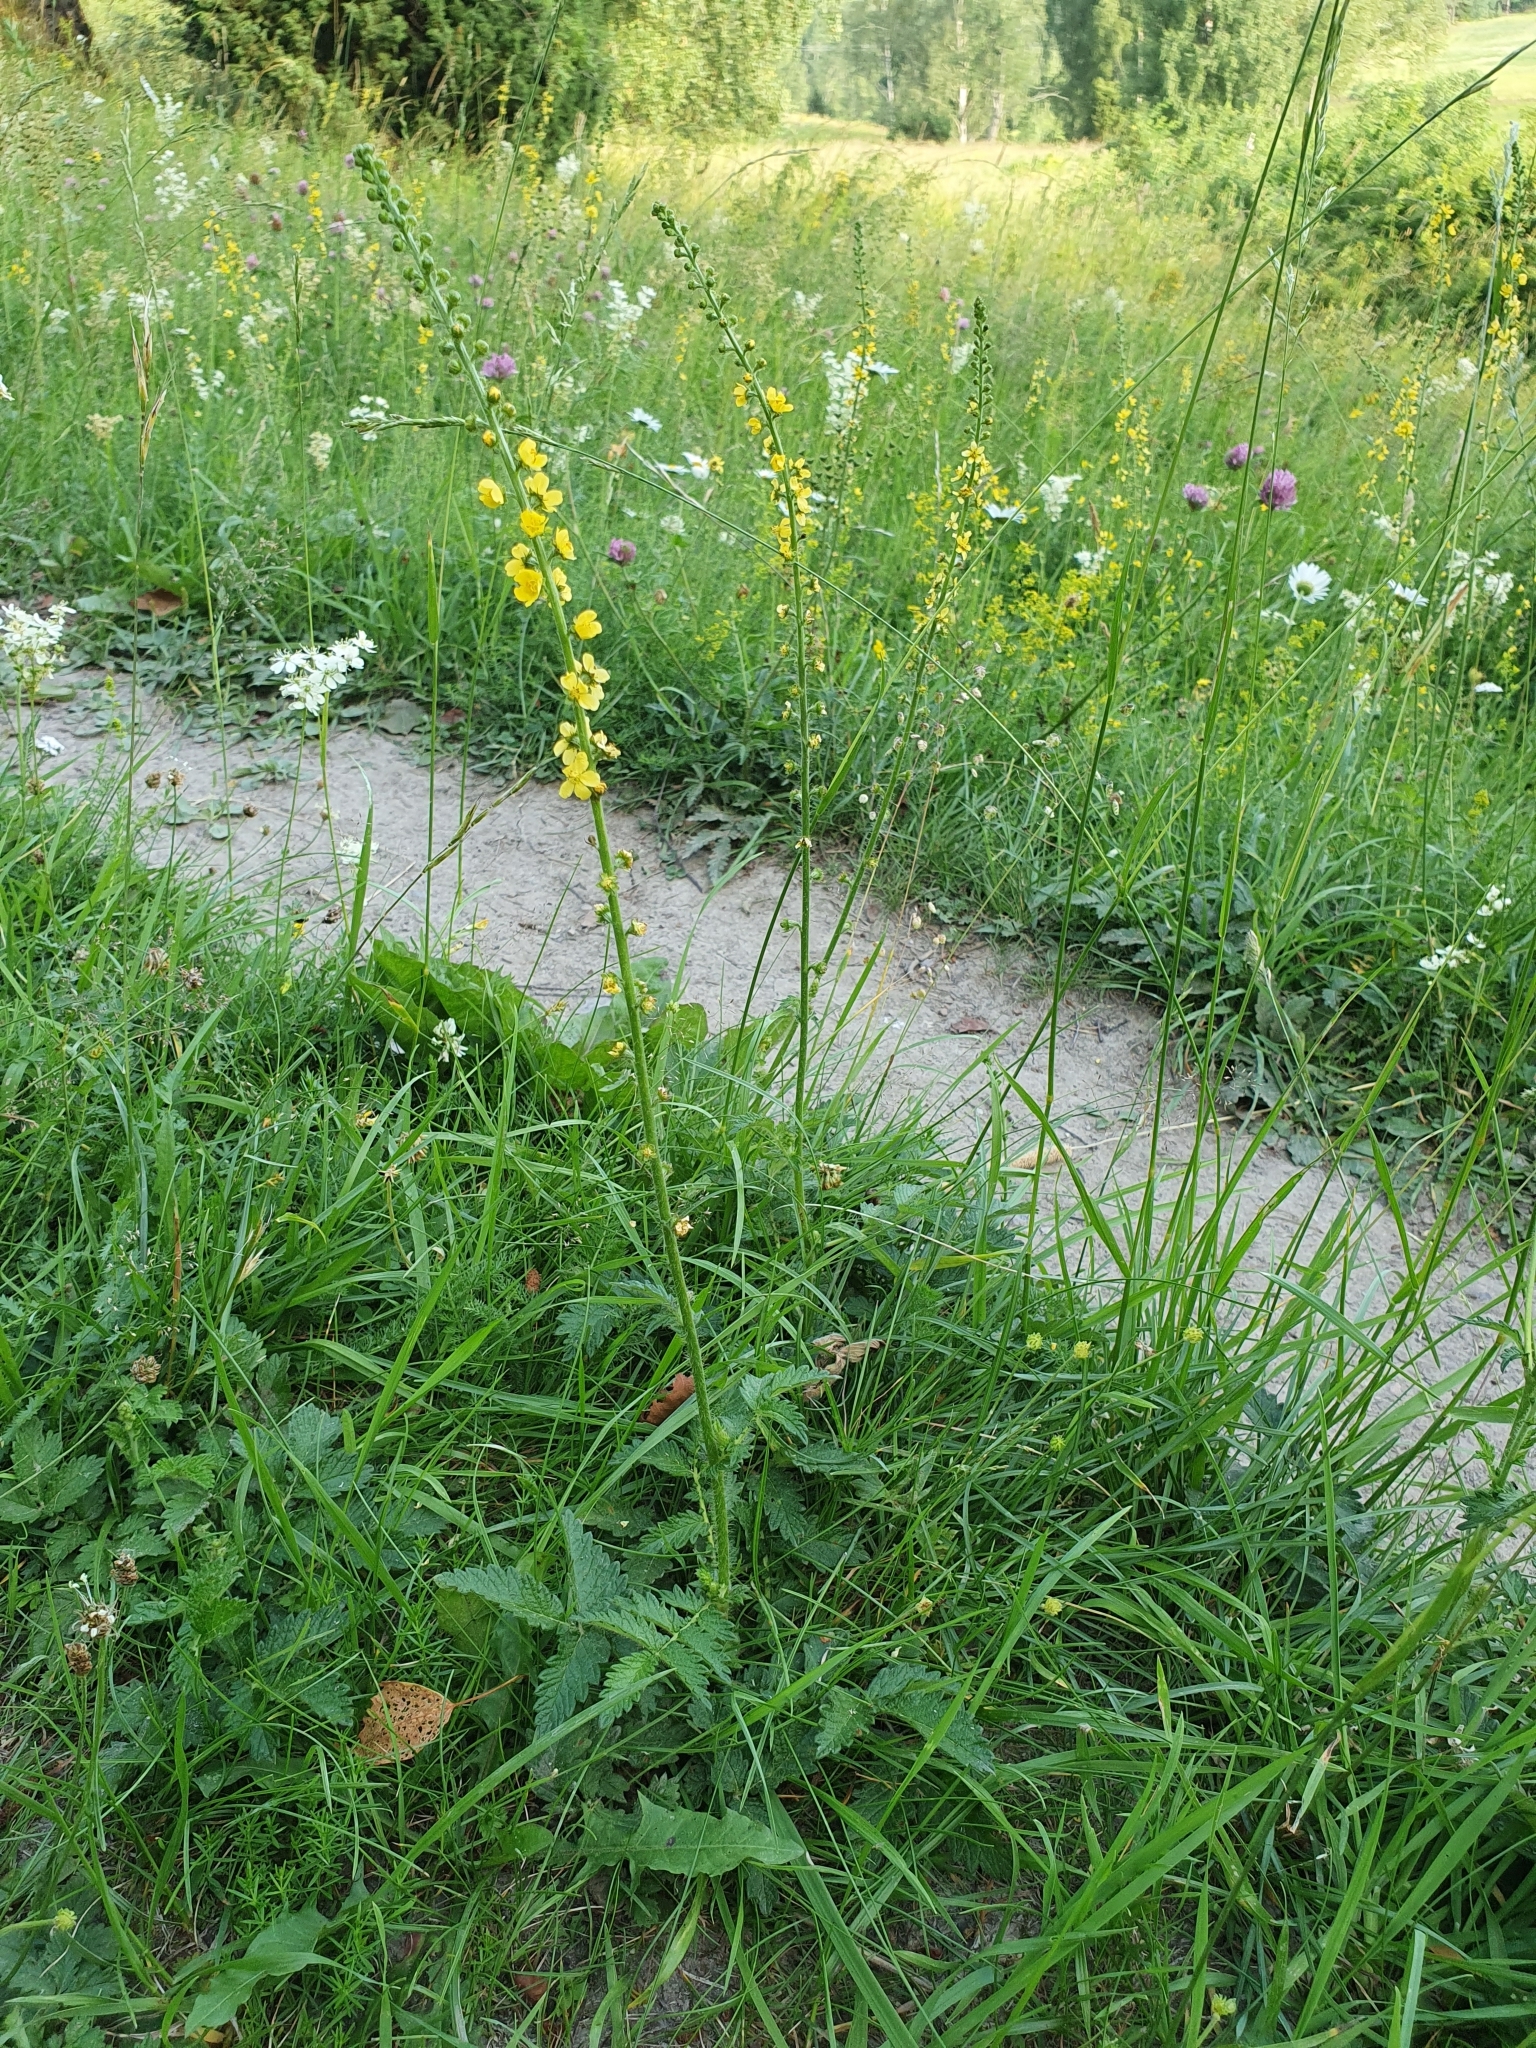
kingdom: Plantae
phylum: Tracheophyta
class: Magnoliopsida
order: Rosales
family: Rosaceae
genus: Agrimonia
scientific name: Agrimonia eupatoria
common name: Agrimony
